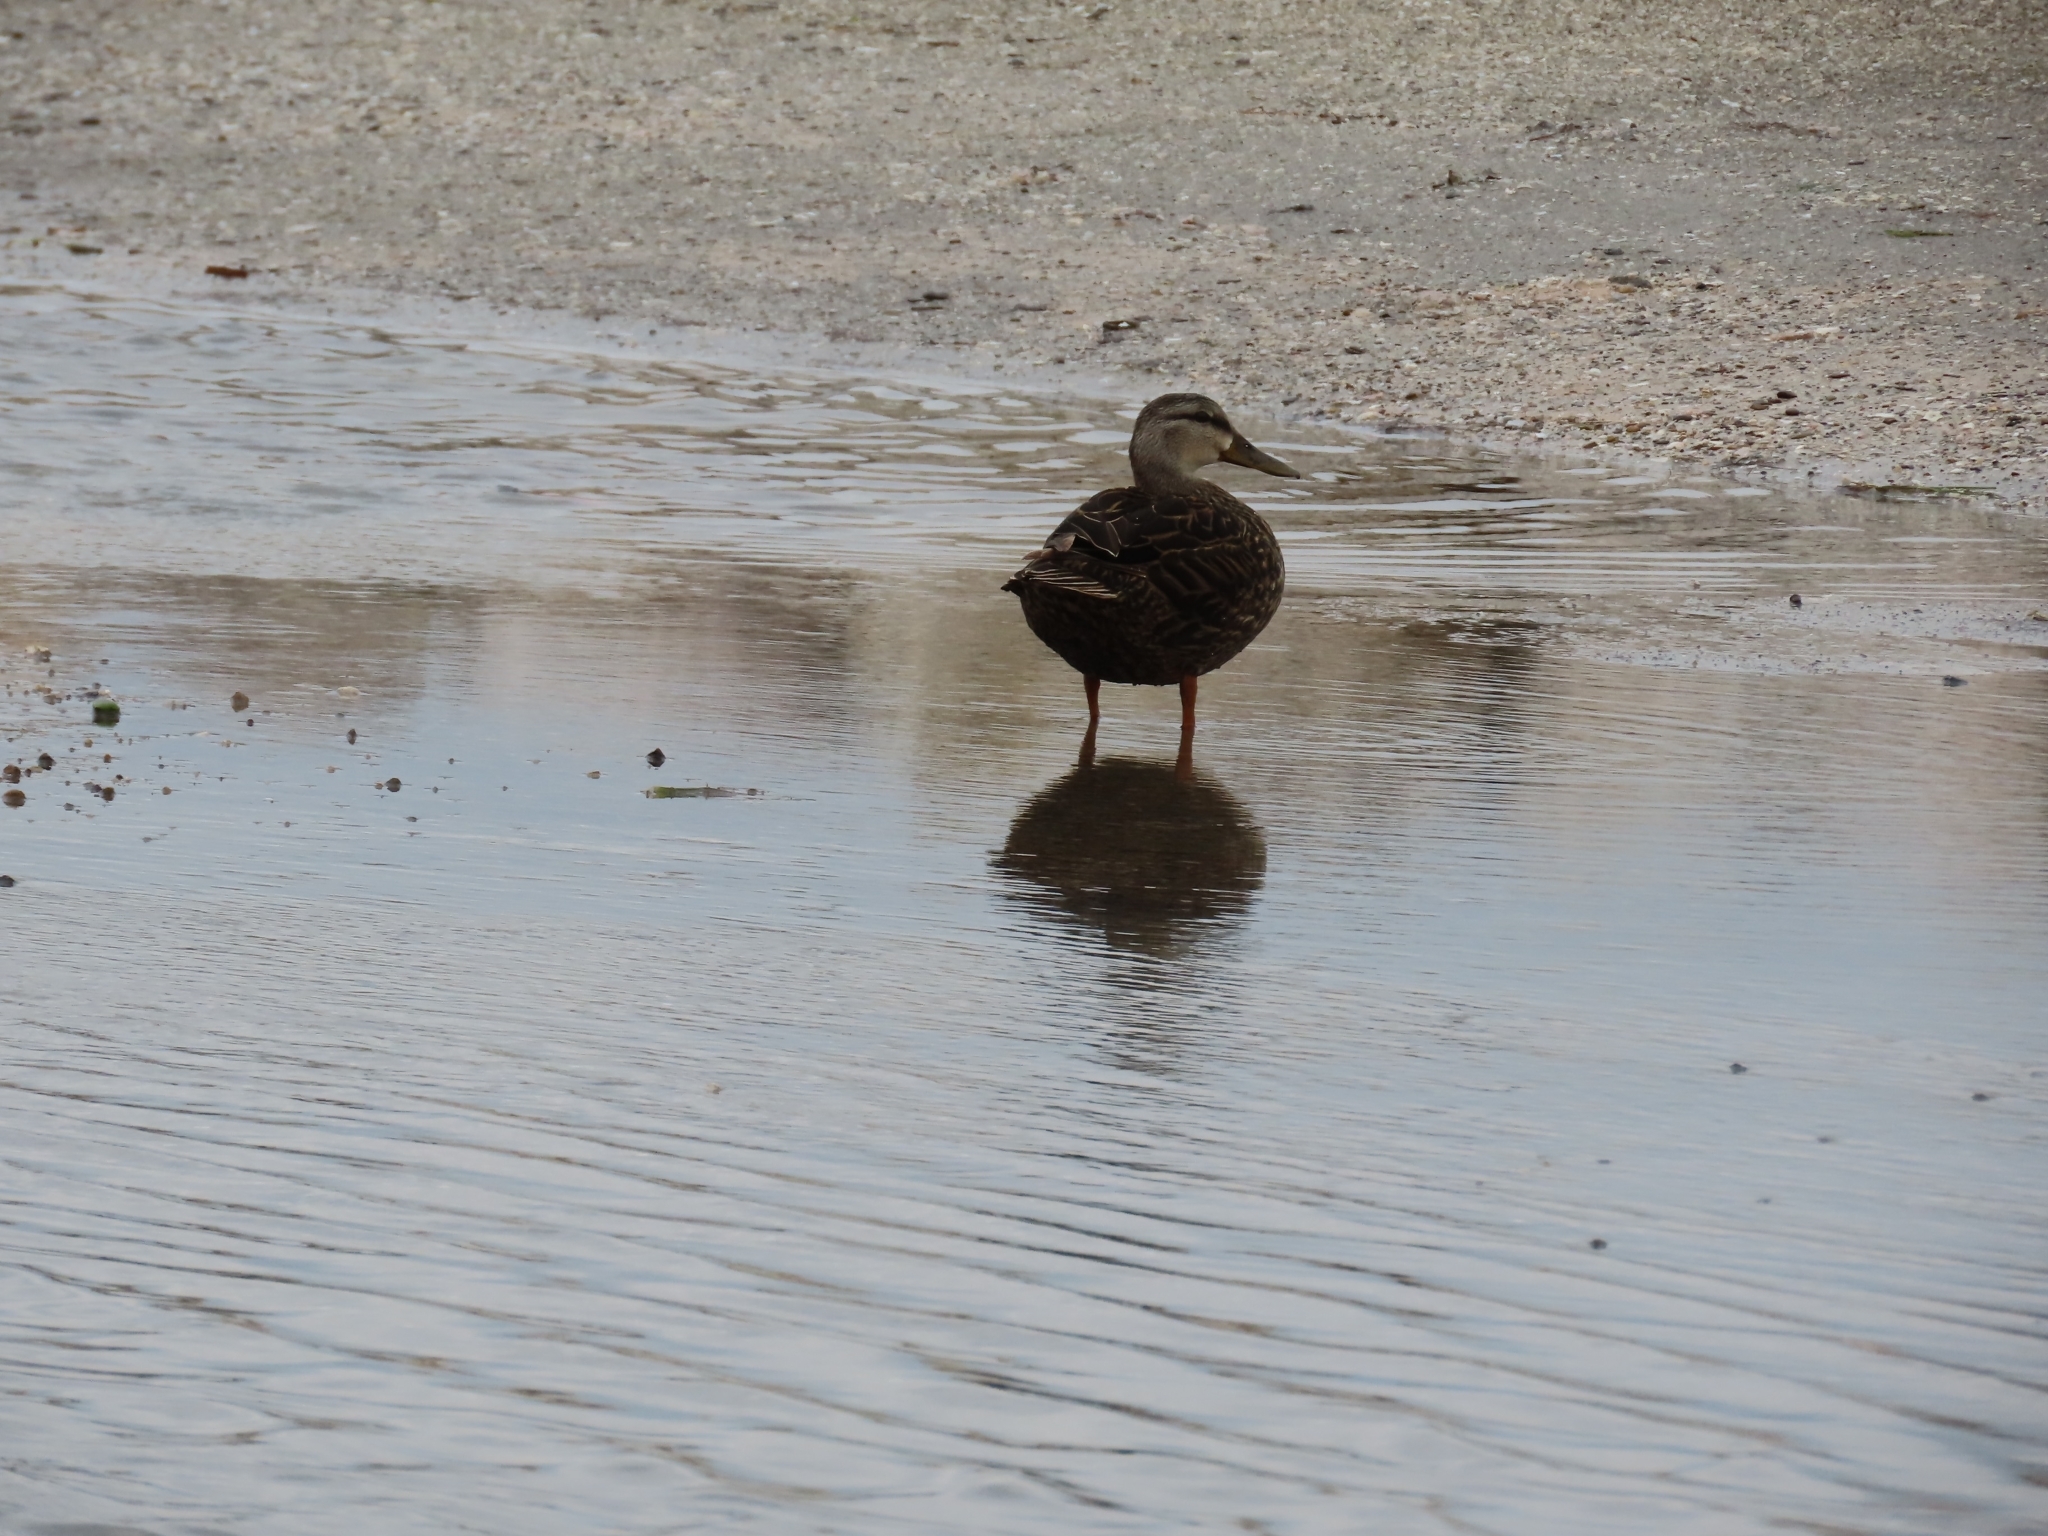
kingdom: Animalia
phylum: Chordata
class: Aves
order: Anseriformes
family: Anatidae
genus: Anas
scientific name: Anas fulvigula
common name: Mottled duck
